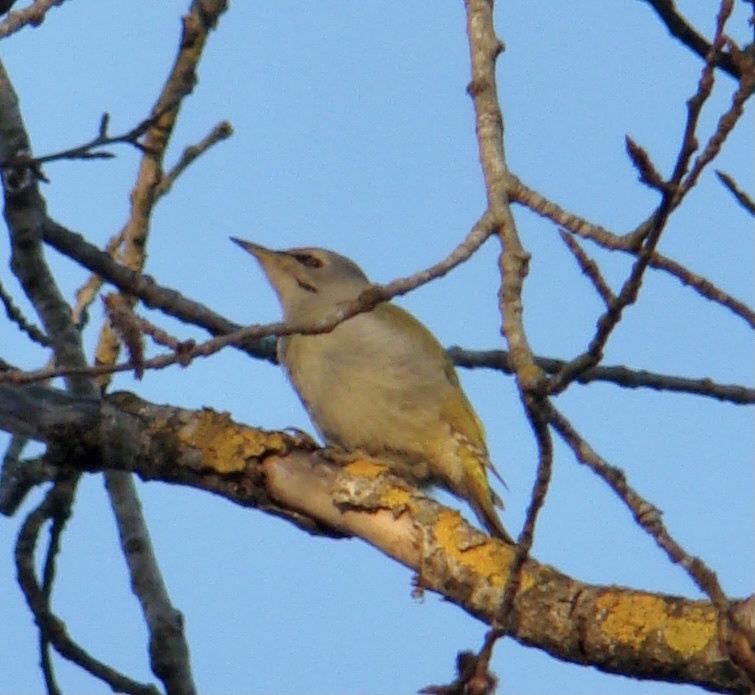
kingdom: Animalia
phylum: Chordata
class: Aves
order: Piciformes
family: Picidae
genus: Picus
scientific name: Picus canus
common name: Grey-headed woodpecker
